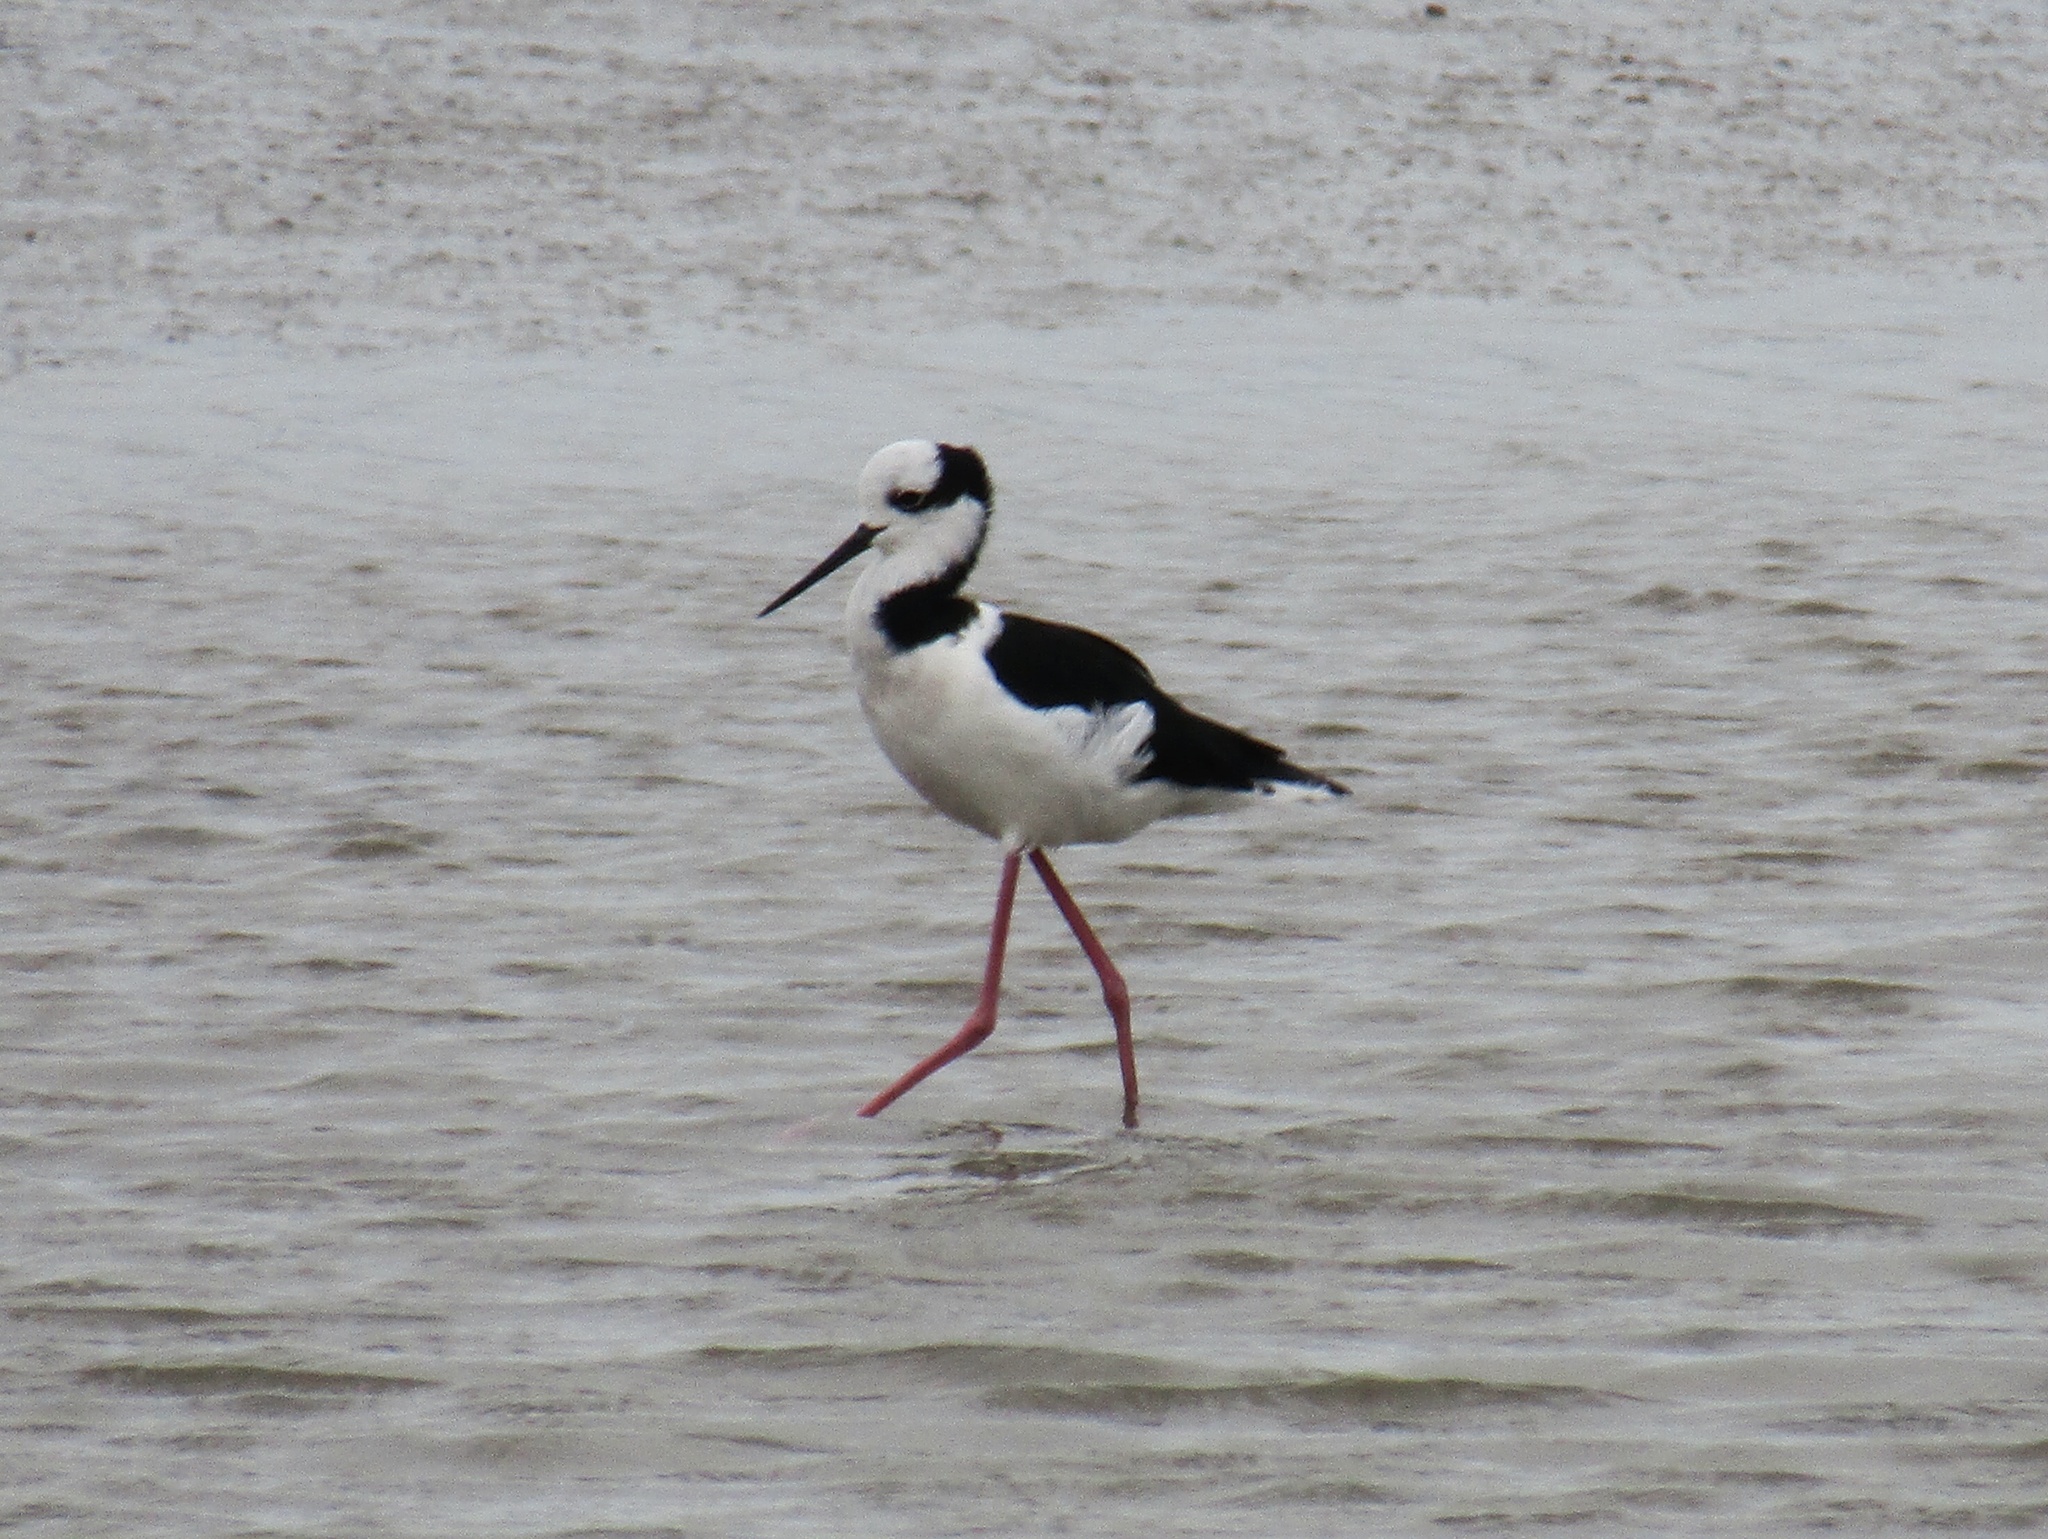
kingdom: Animalia
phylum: Chordata
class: Aves
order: Charadriiformes
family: Recurvirostridae
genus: Himantopus
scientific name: Himantopus mexicanus
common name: Black-necked stilt
